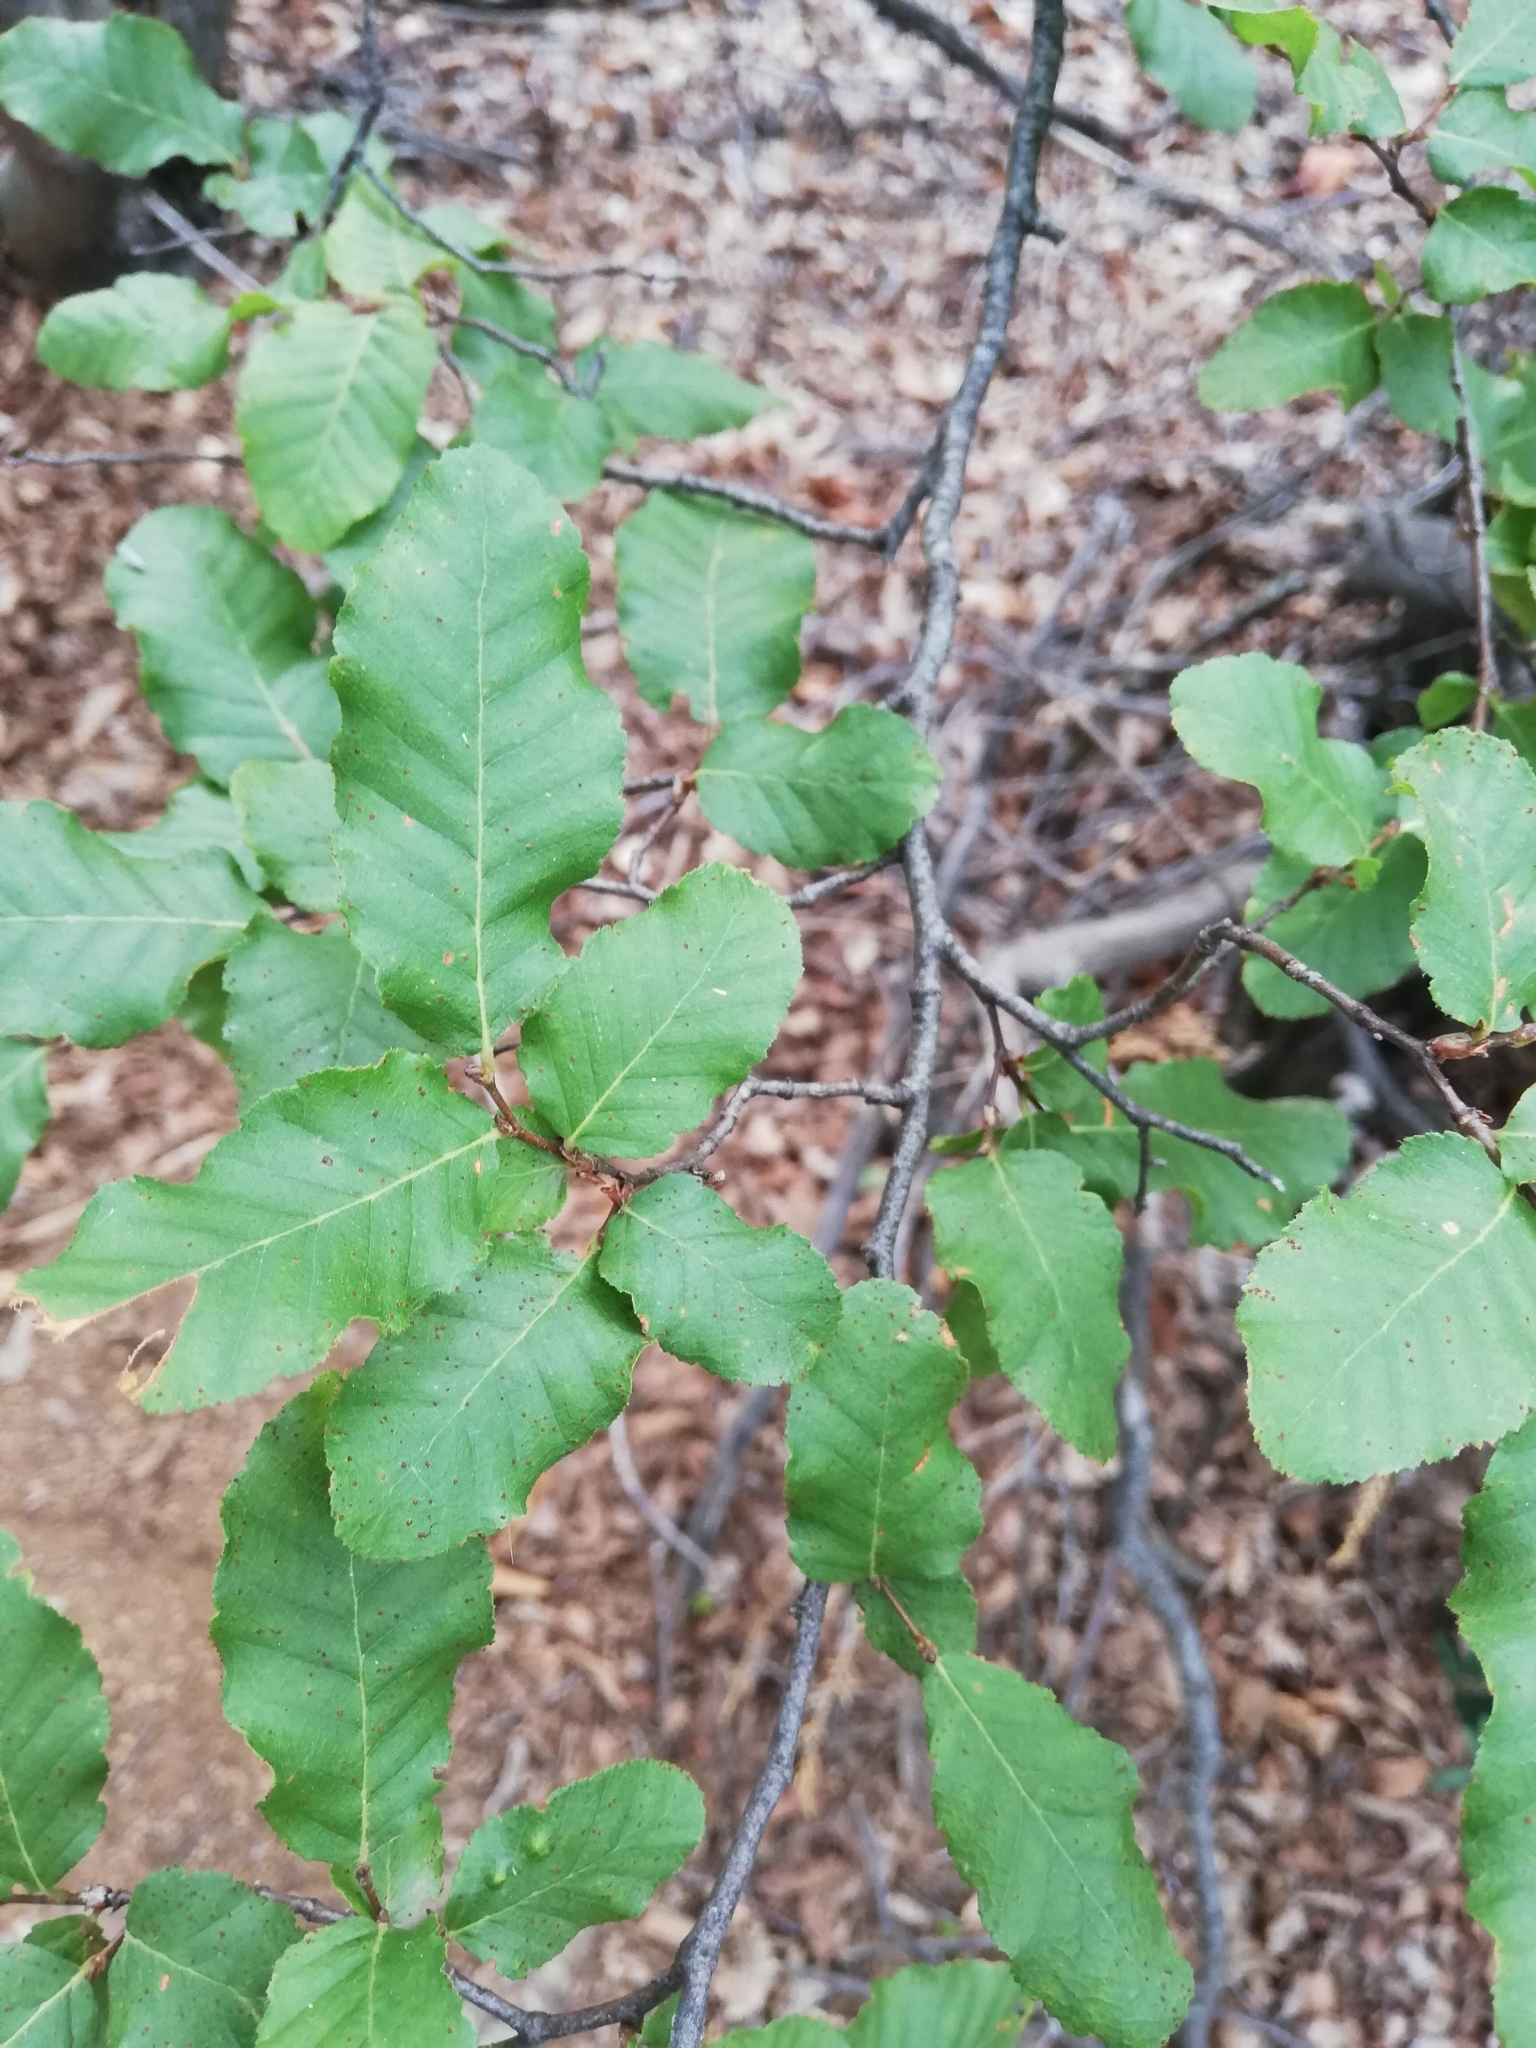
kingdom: Plantae
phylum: Tracheophyta
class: Magnoliopsida
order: Fagales
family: Nothofagaceae
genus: Nothofagus
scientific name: Nothofagus glauca
